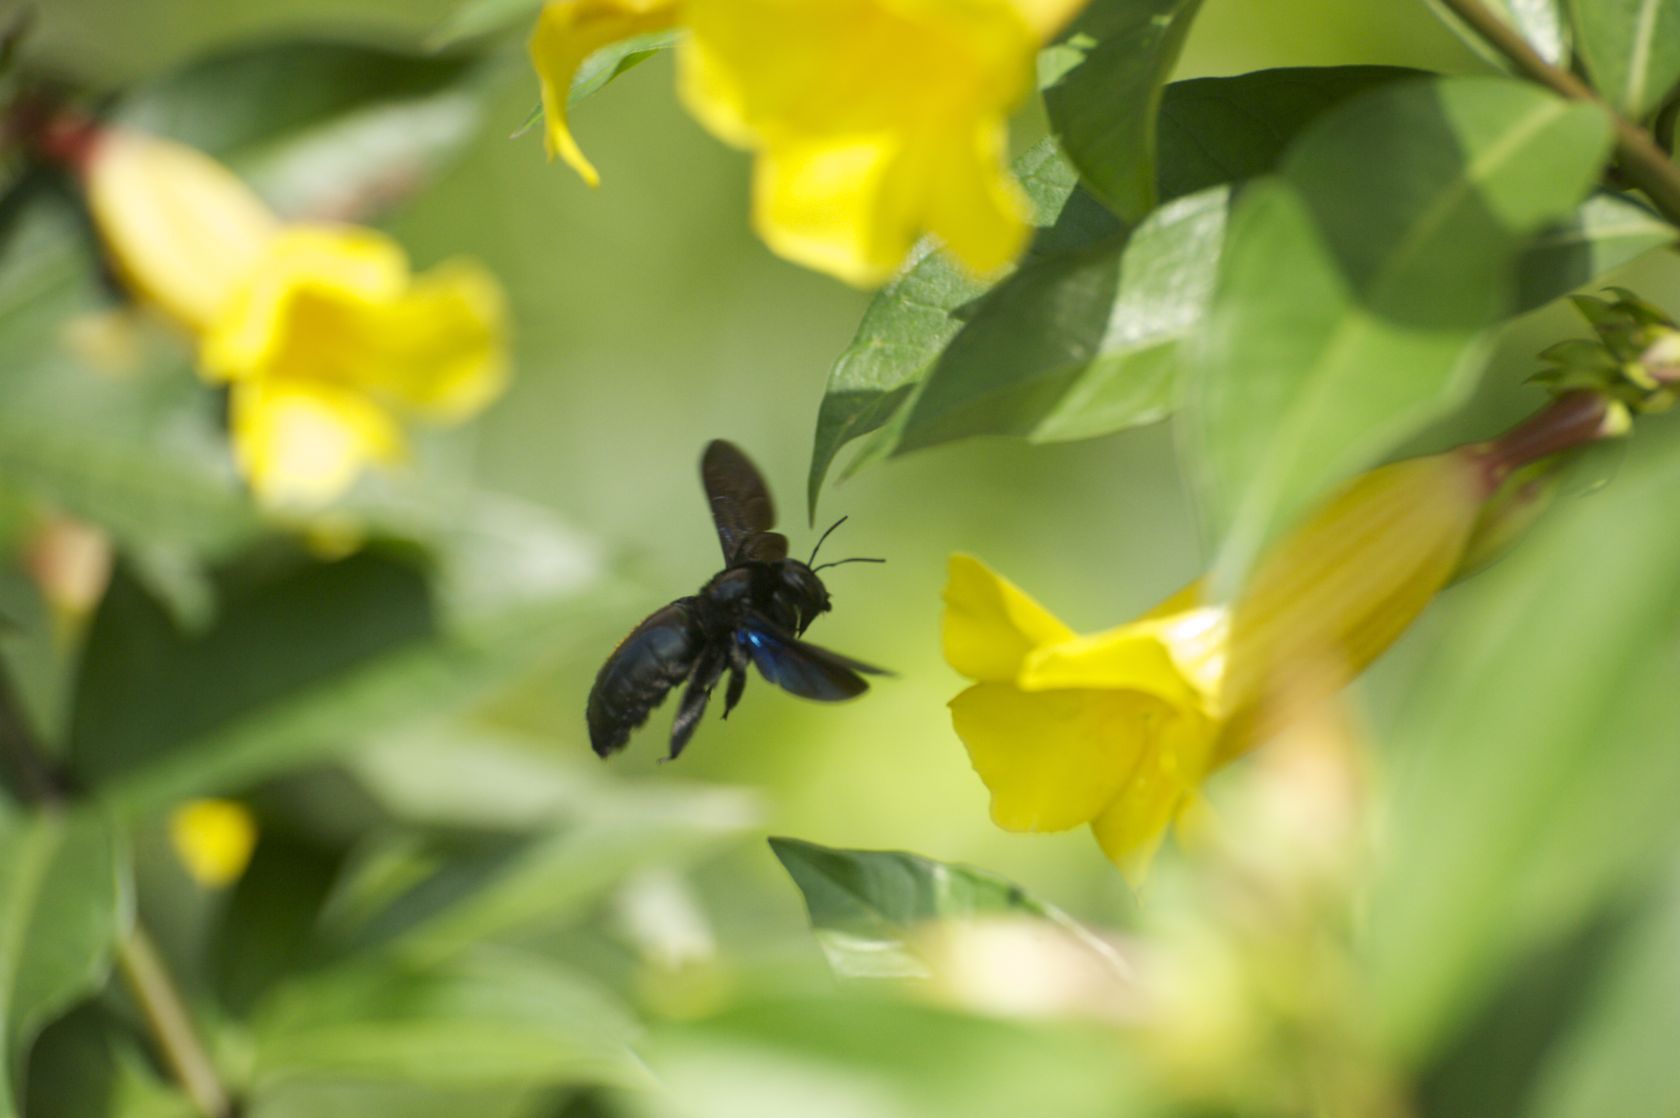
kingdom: Animalia
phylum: Arthropoda
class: Insecta
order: Hymenoptera
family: Apidae
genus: Xylocopa
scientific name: Xylocopa nasalis
